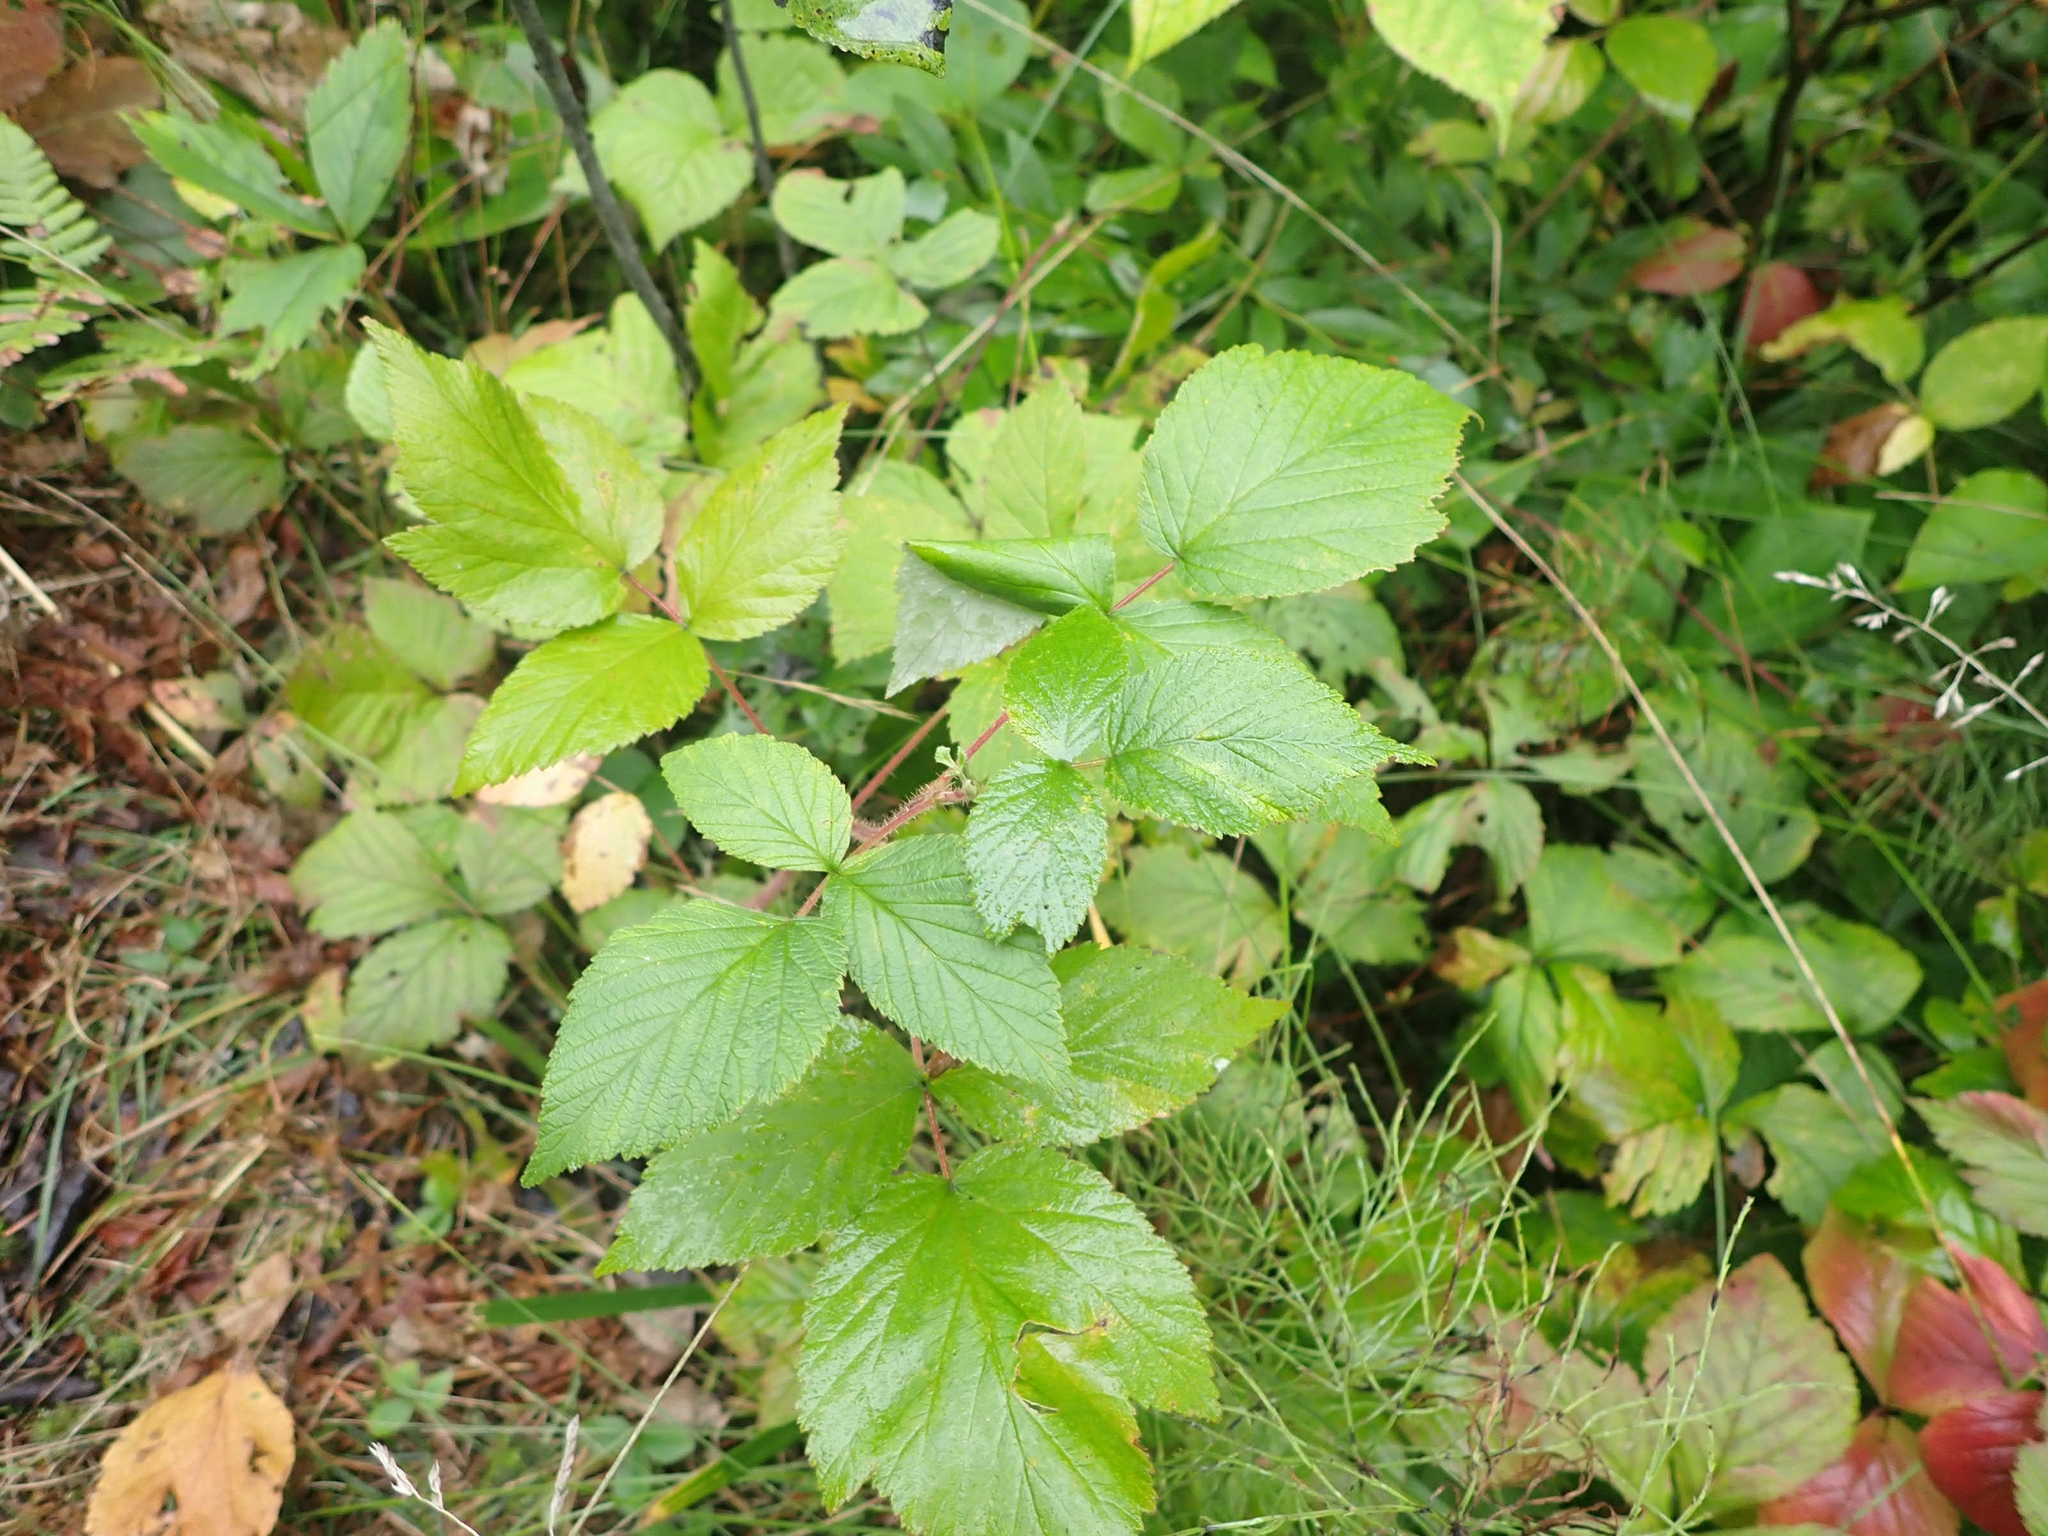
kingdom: Plantae
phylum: Tracheophyta
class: Magnoliopsida
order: Rosales
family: Rosaceae
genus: Rubus
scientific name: Rubus idaeus
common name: Raspberry
